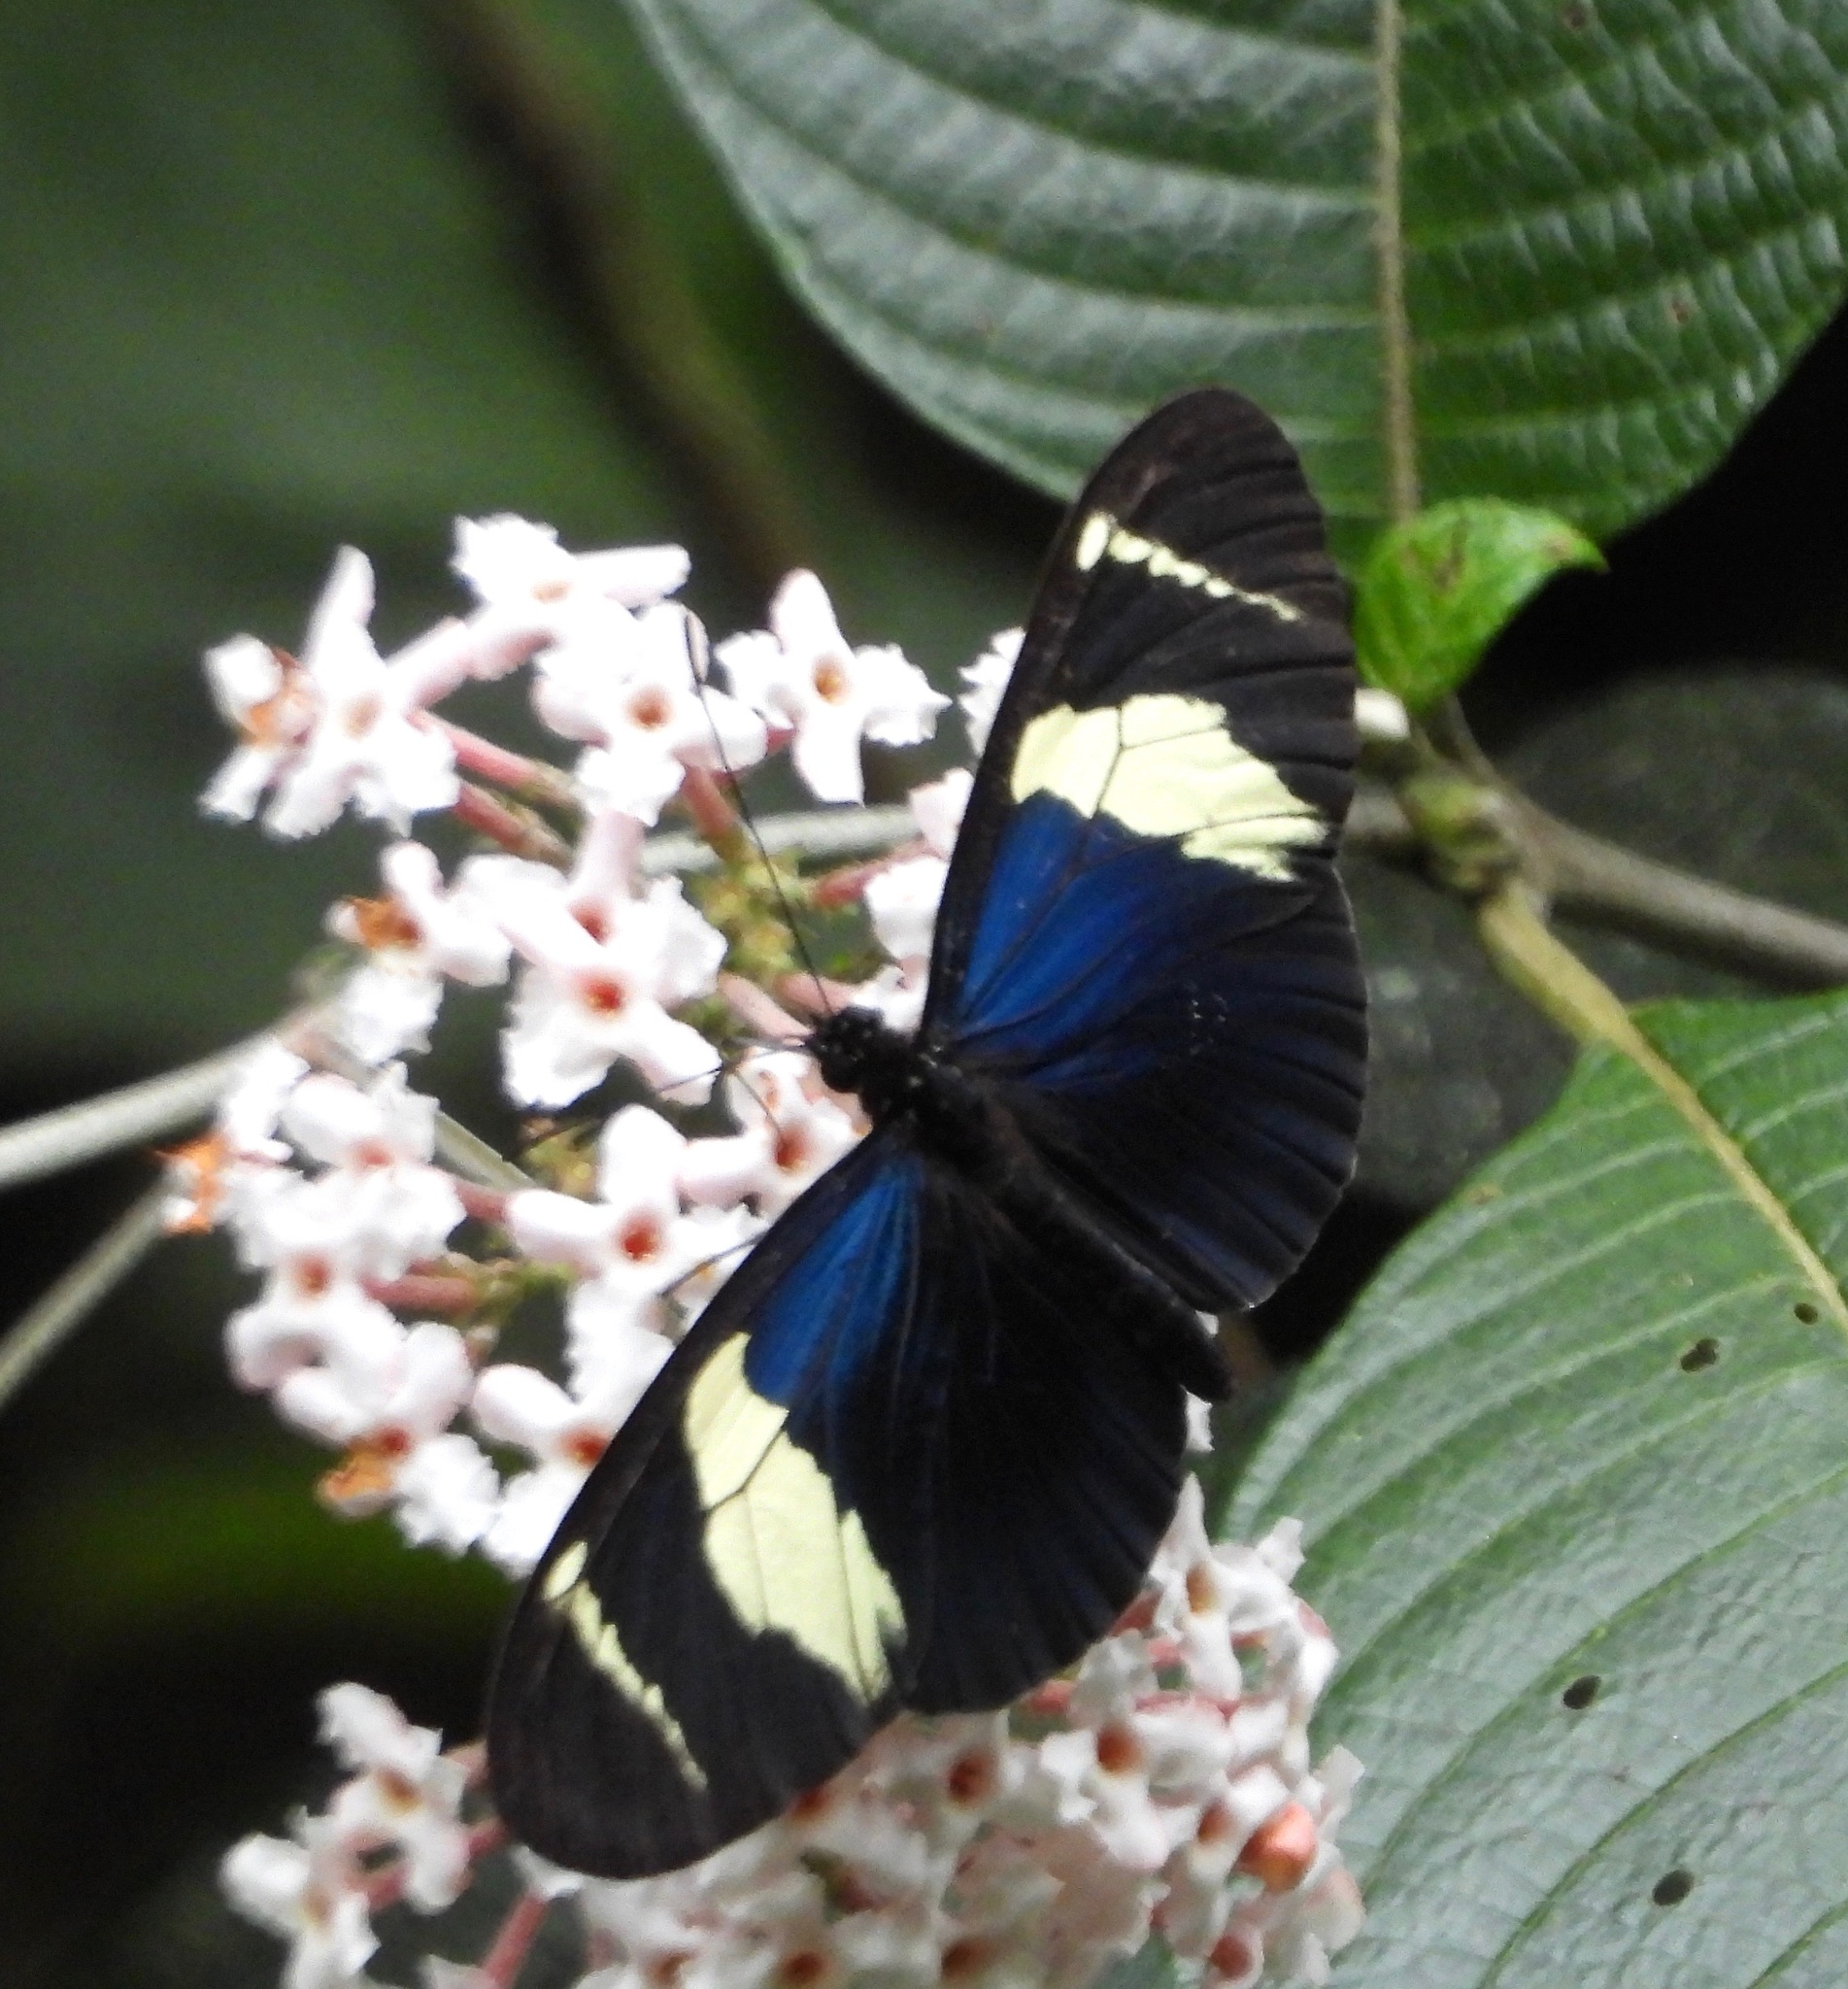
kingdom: Animalia
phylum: Arthropoda
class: Insecta
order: Lepidoptera
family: Nymphalidae
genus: Heliconius
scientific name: Heliconius congener
